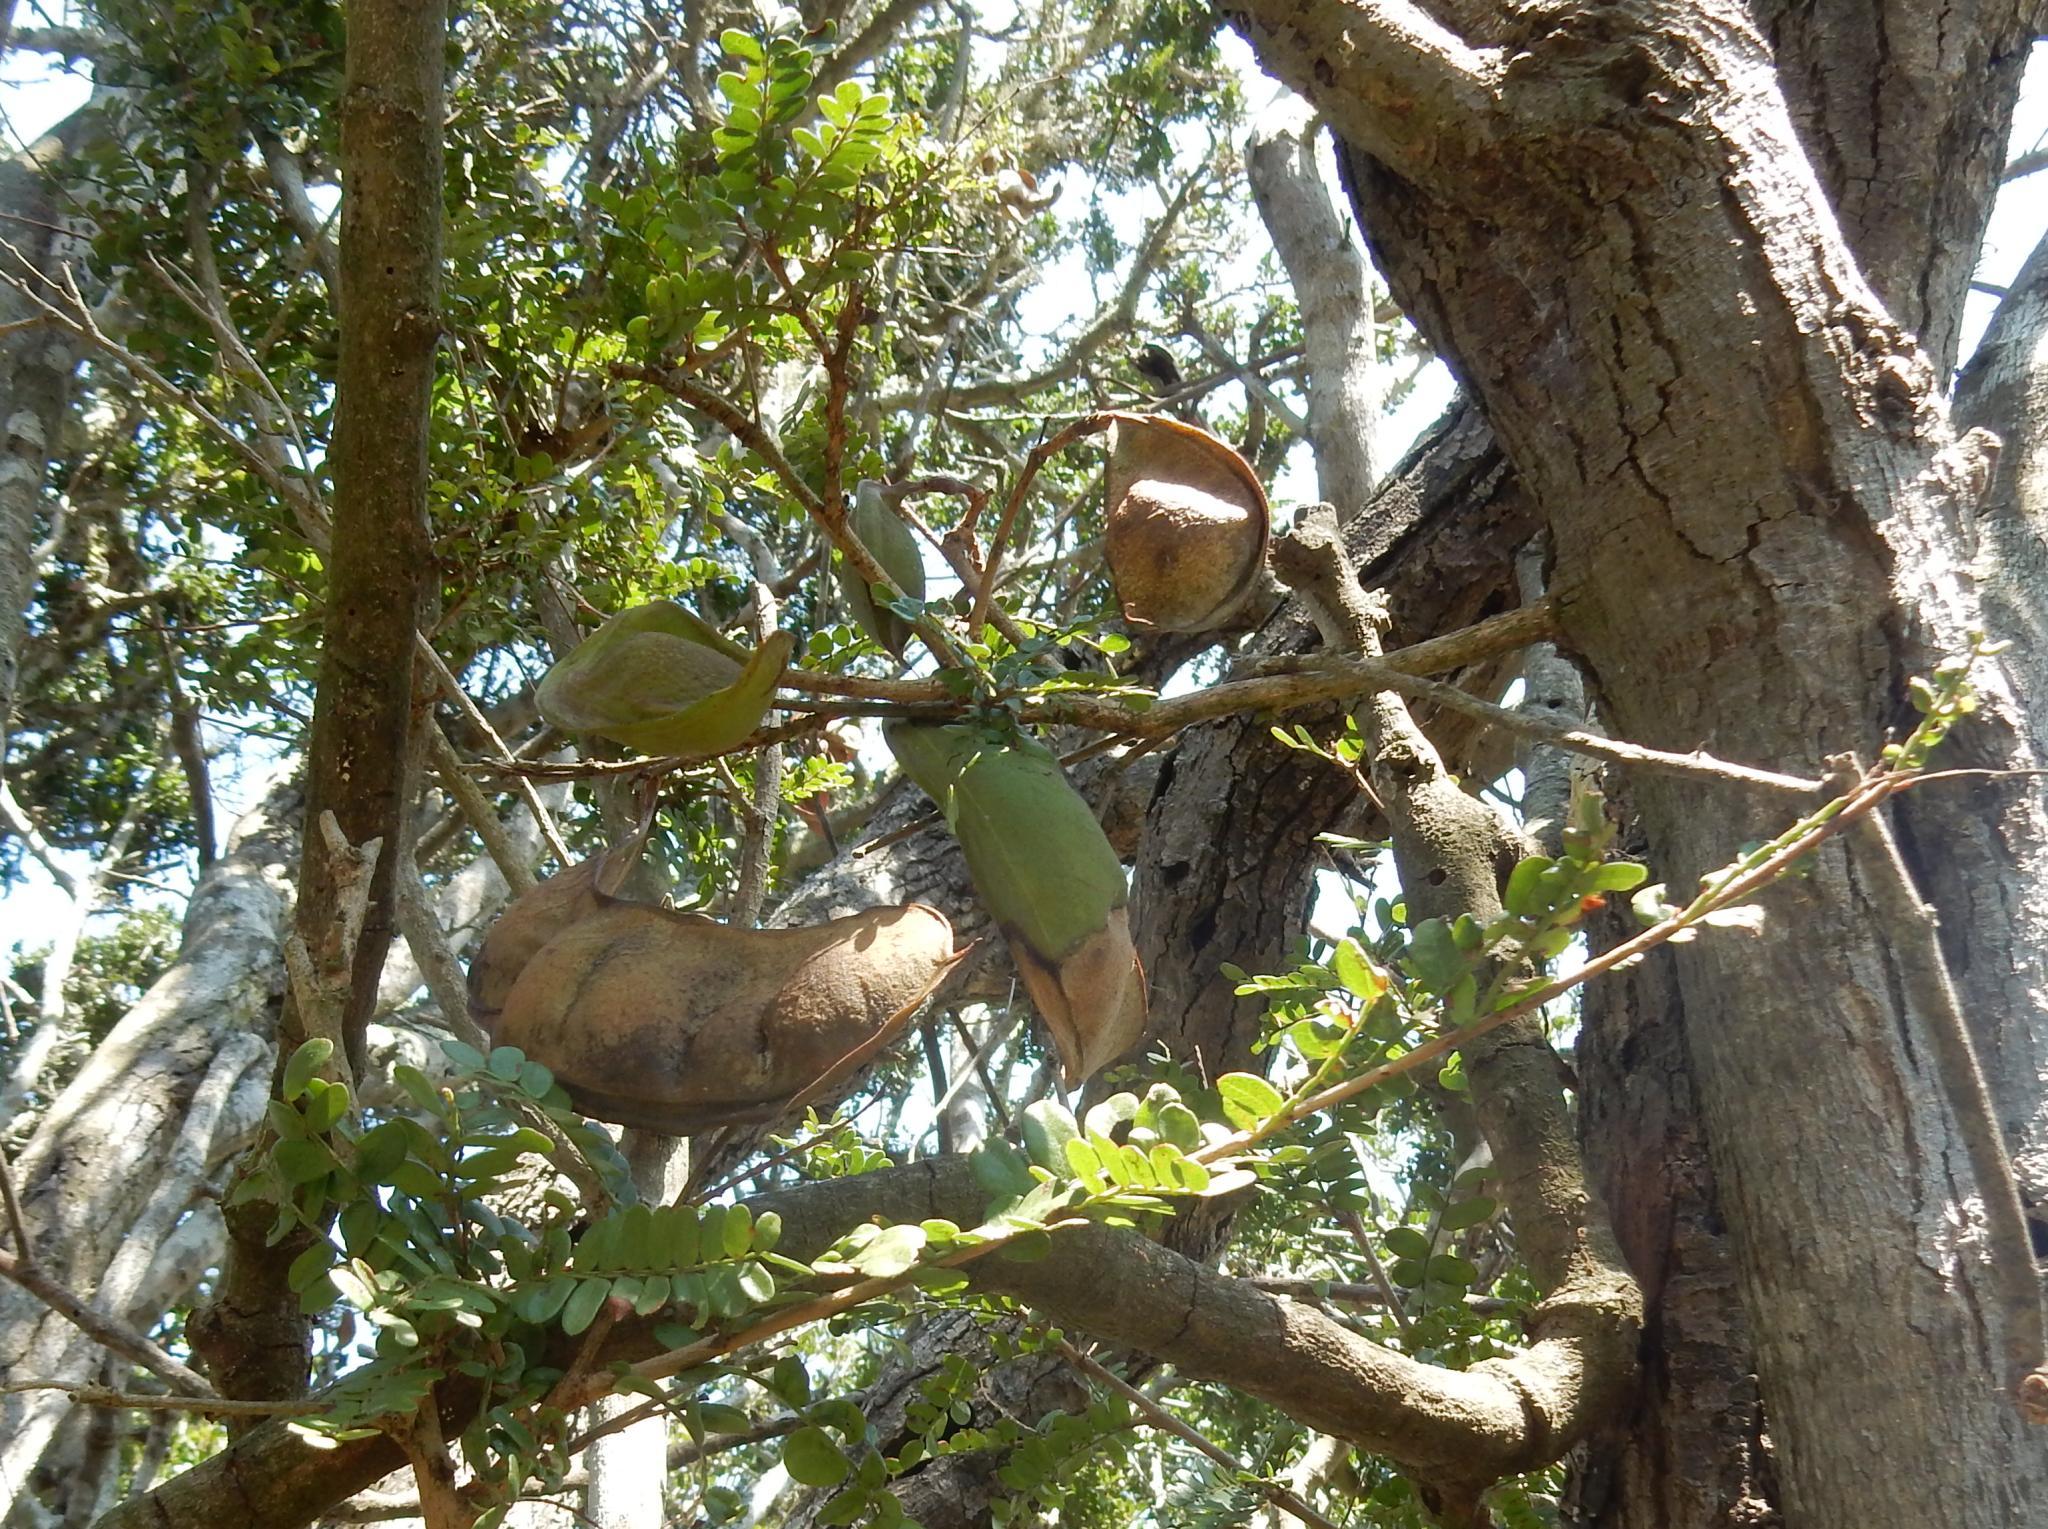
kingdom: Plantae
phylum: Tracheophyta
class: Magnoliopsida
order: Fabales
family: Fabaceae
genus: Schotia
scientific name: Schotia afra
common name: Hottentot's bean
